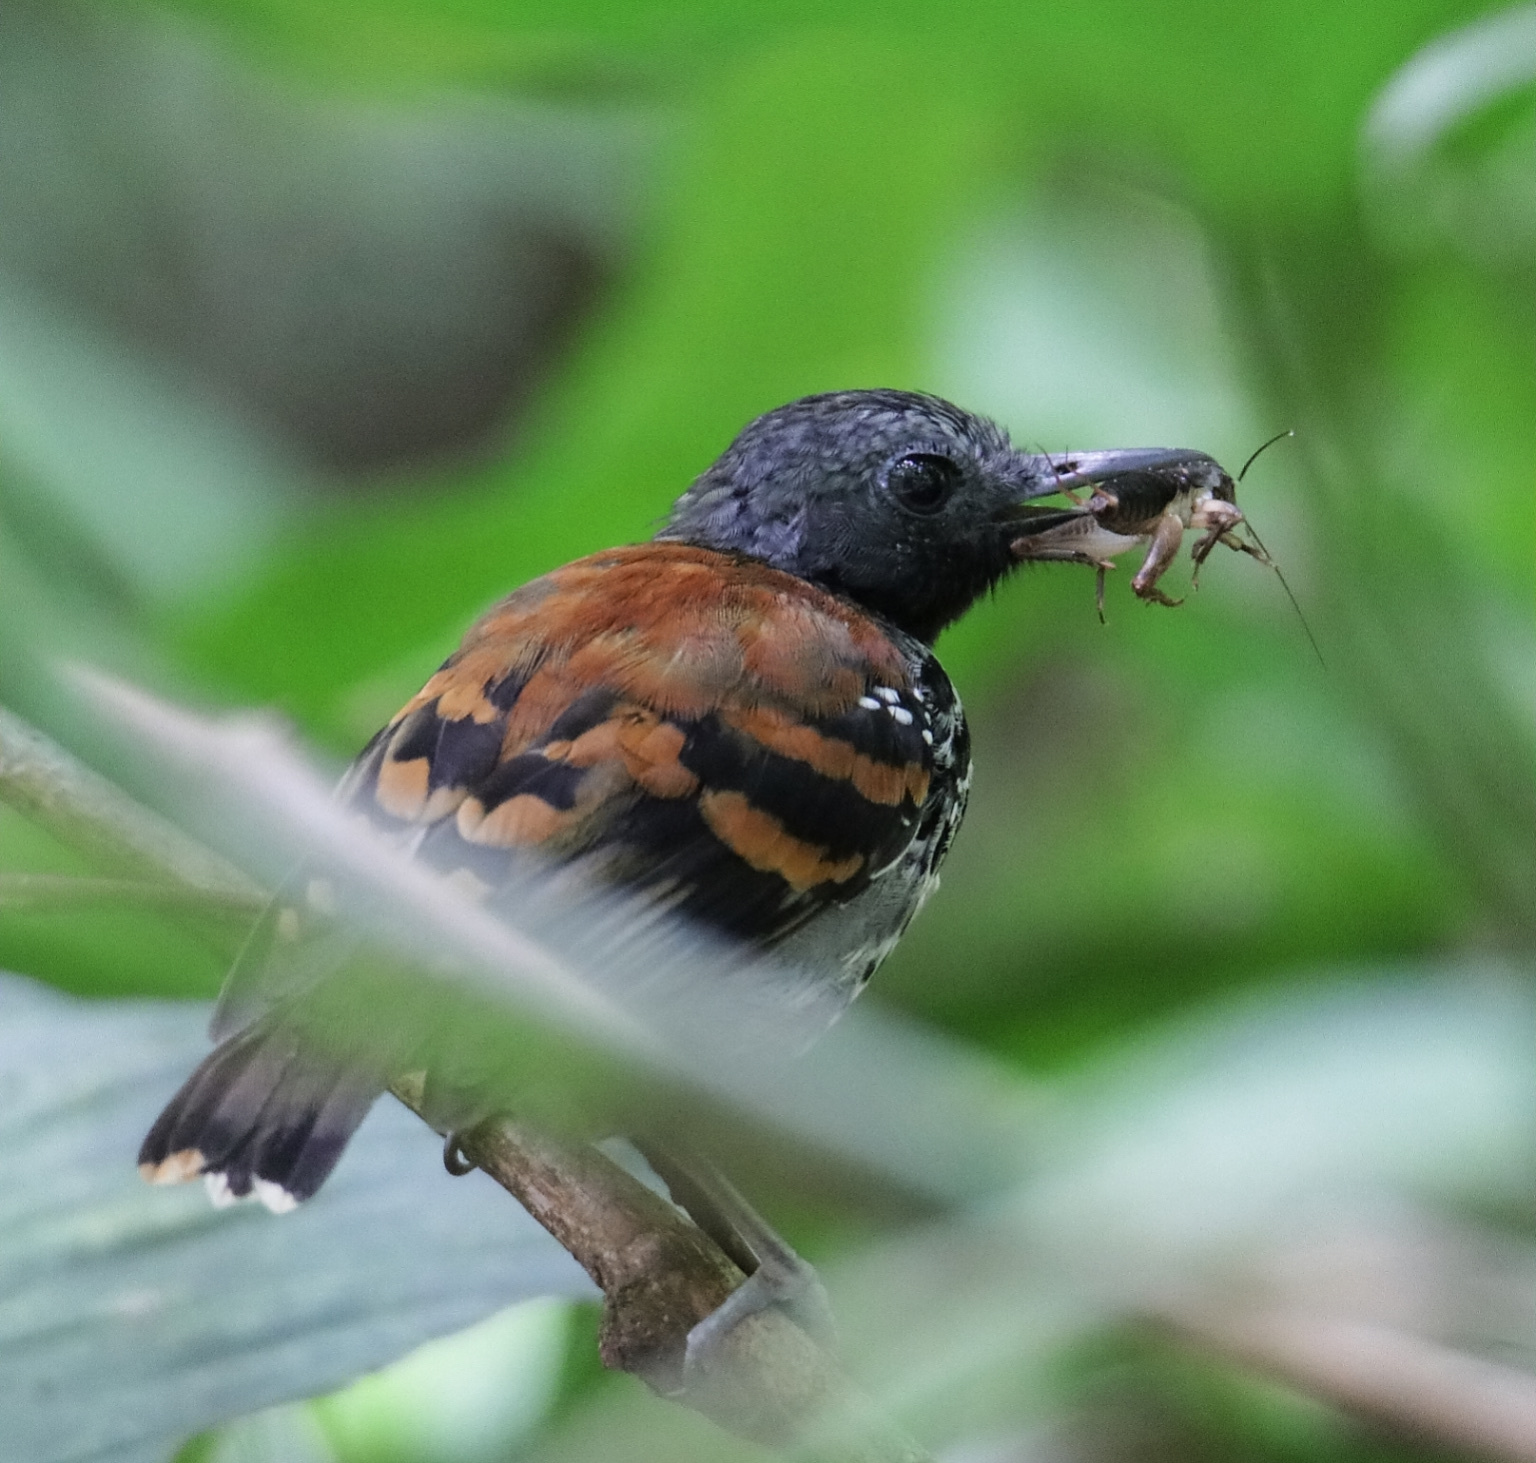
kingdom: Animalia
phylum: Chordata
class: Aves
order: Passeriformes
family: Thamnophilidae
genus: Hylophylax
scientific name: Hylophylax naevioides
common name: Spotted antbird
